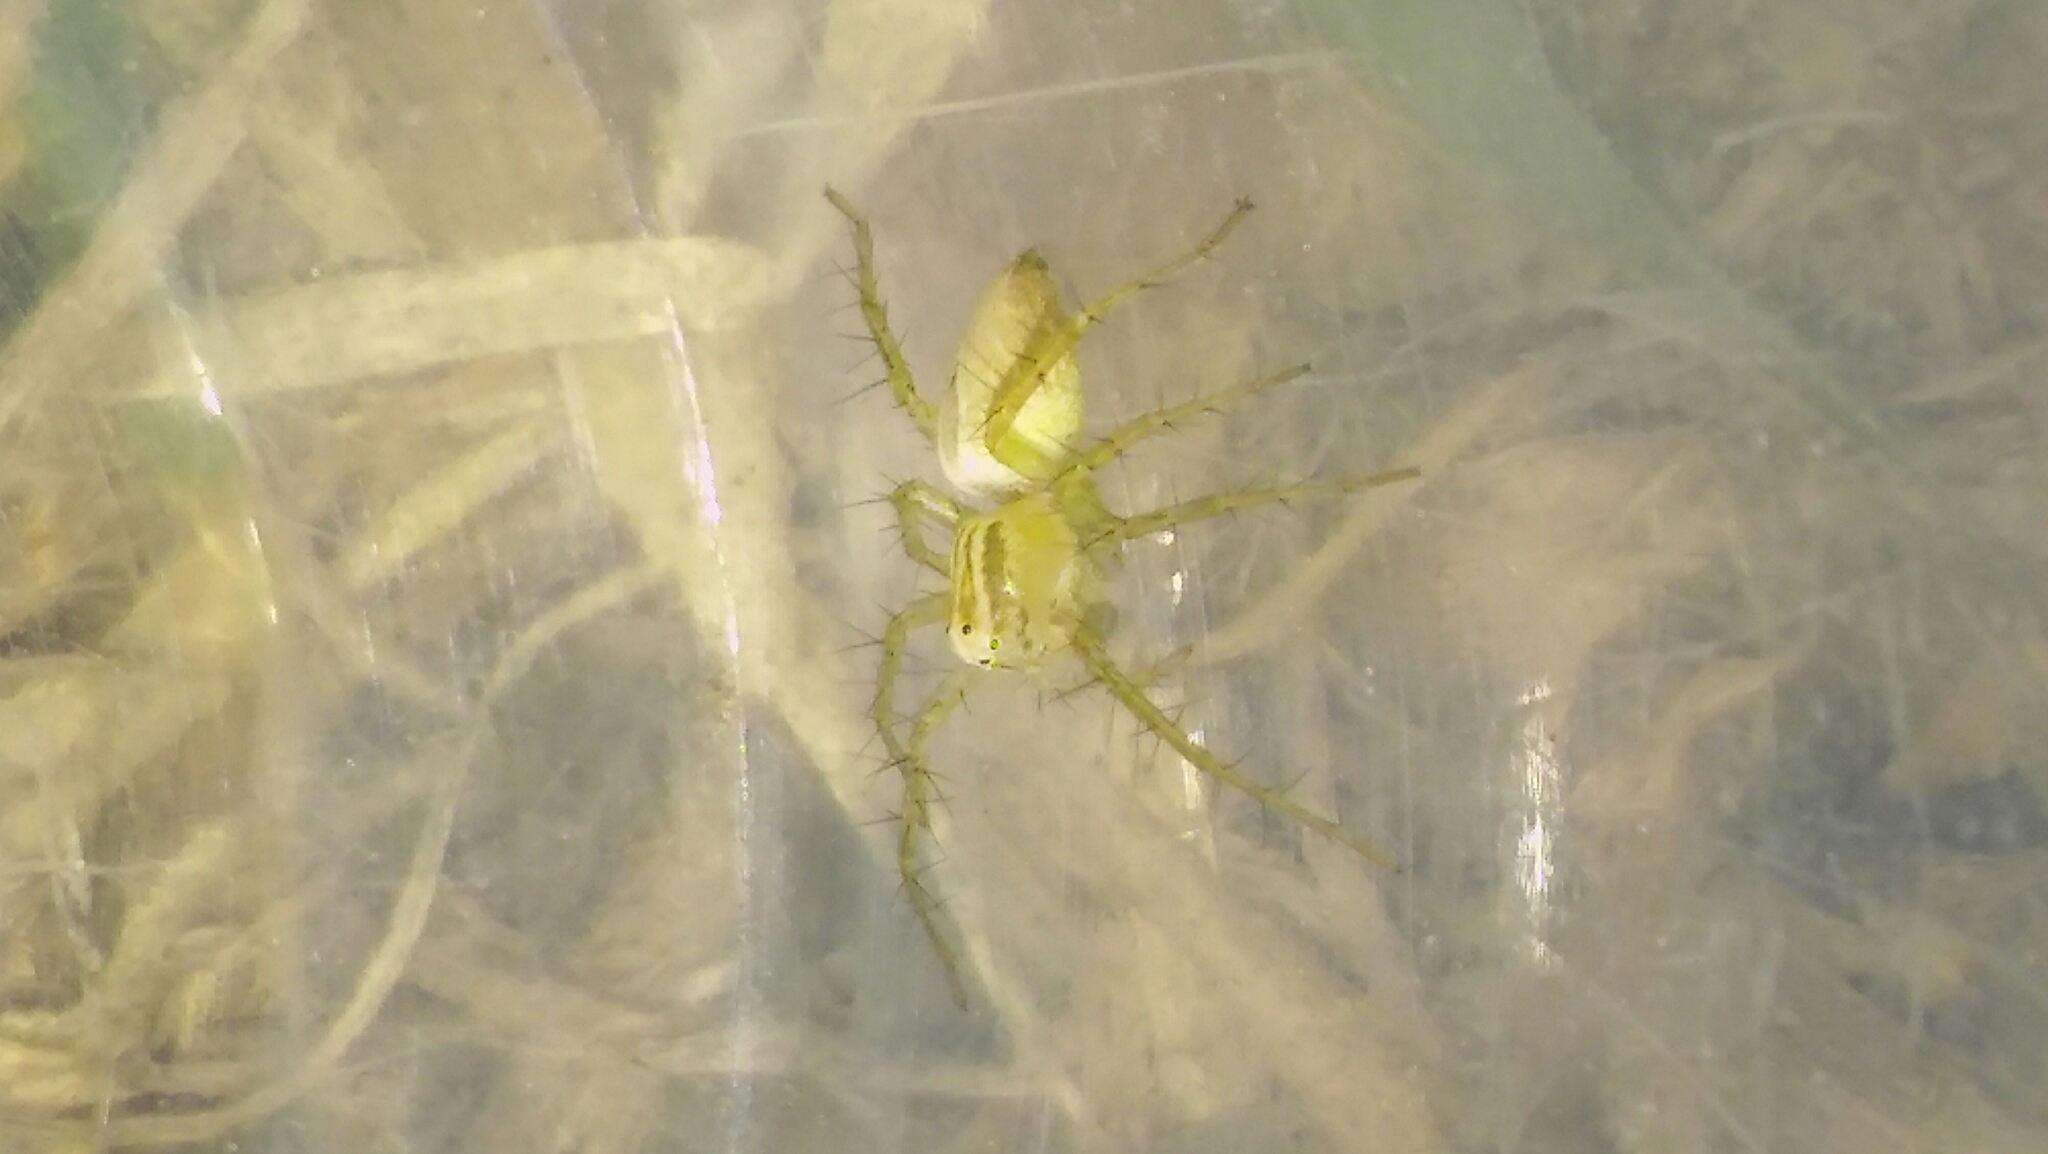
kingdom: Animalia
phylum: Arthropoda
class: Arachnida
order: Araneae
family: Oxyopidae
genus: Oxyopes
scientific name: Oxyopes salticus
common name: Lynx spiders
